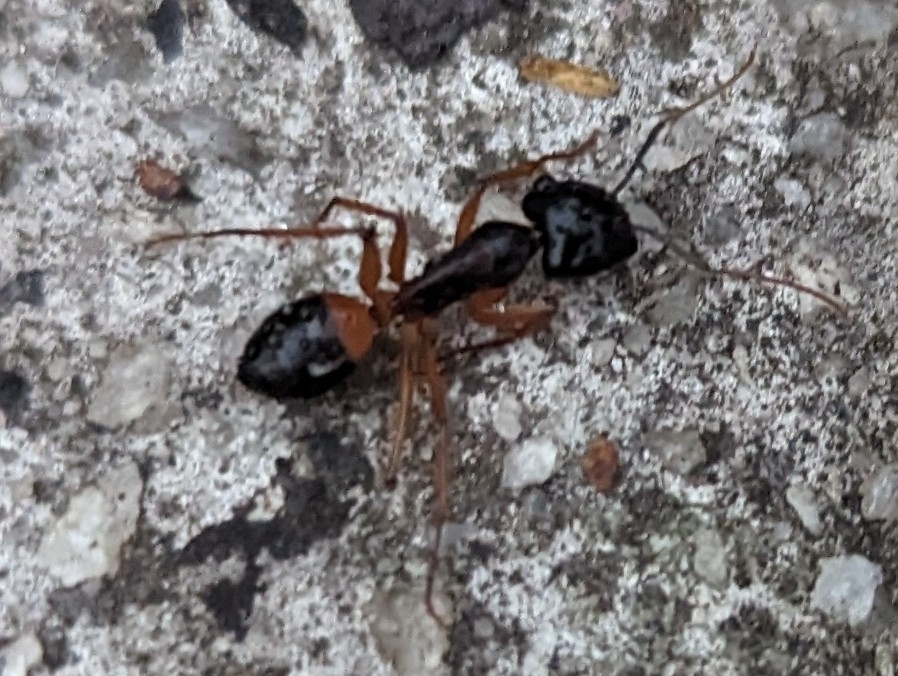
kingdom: Animalia
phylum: Arthropoda
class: Insecta
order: Hymenoptera
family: Formicidae
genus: Camponotus
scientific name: Camponotus consobrinus
